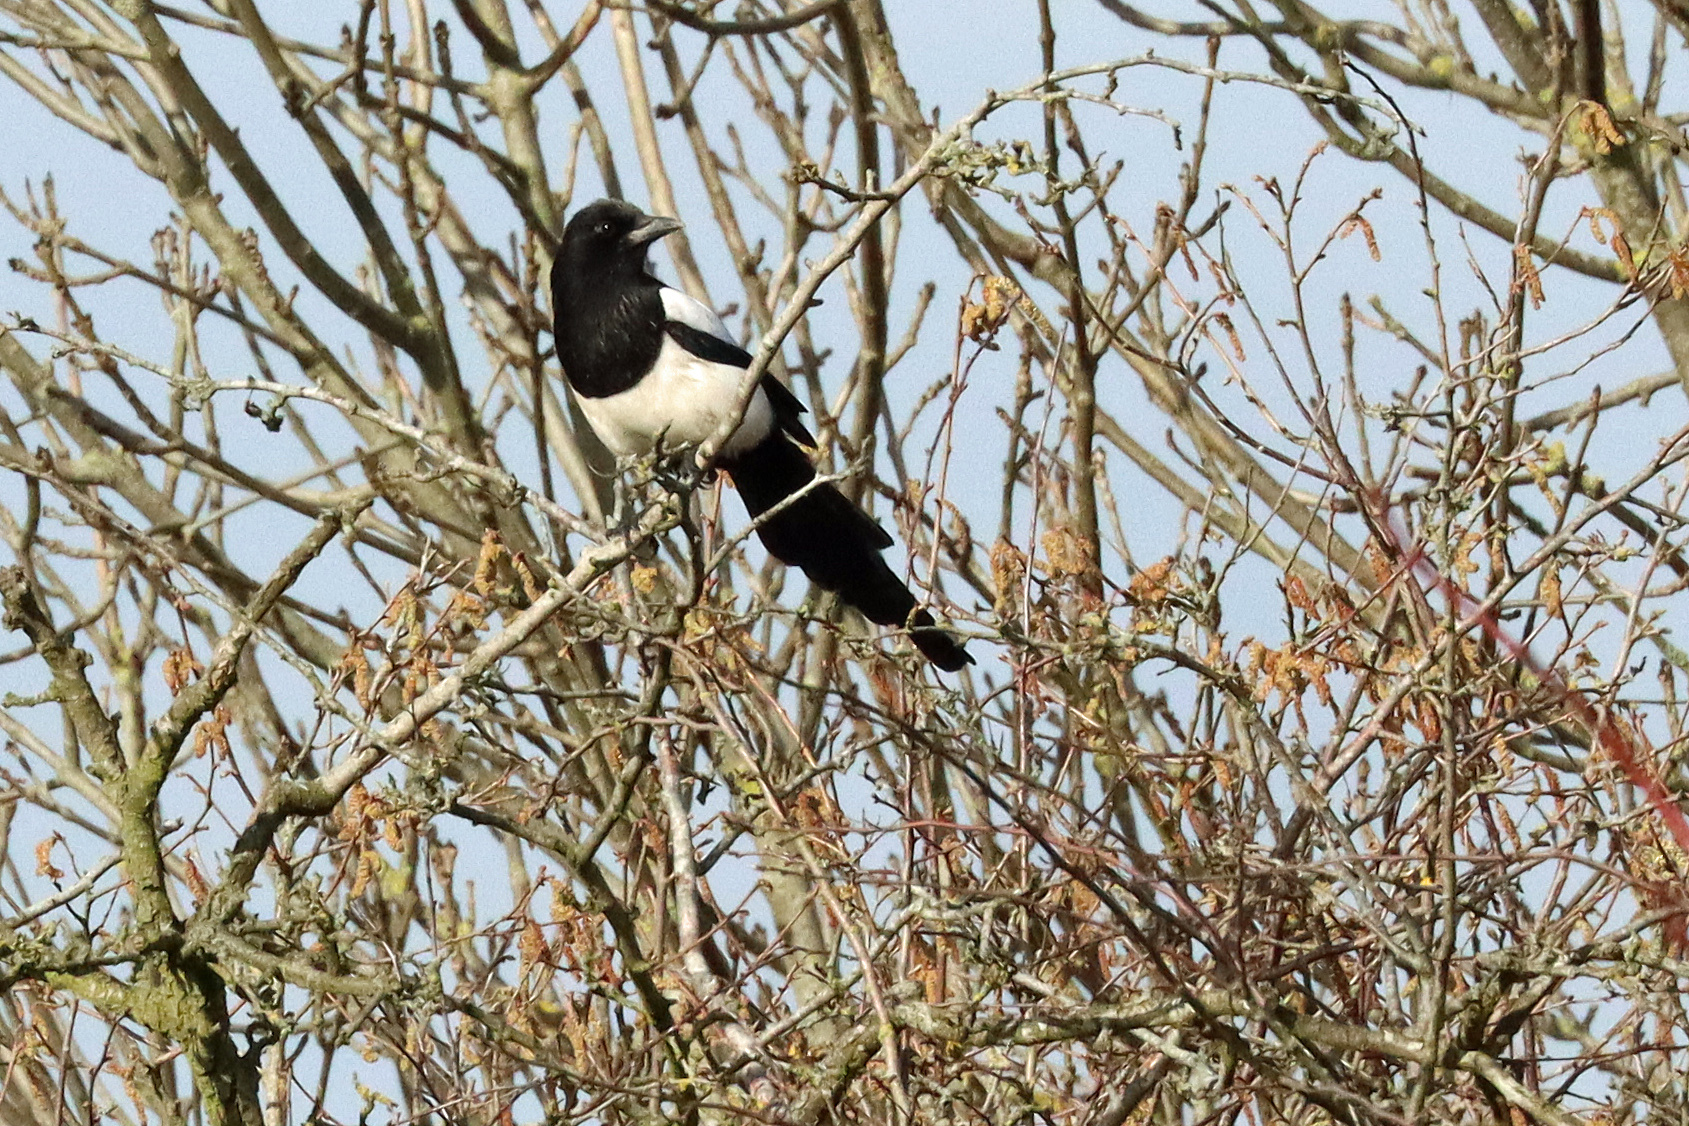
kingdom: Animalia
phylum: Chordata
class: Aves
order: Passeriformes
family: Corvidae
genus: Pica
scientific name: Pica pica
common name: Eurasian magpie
